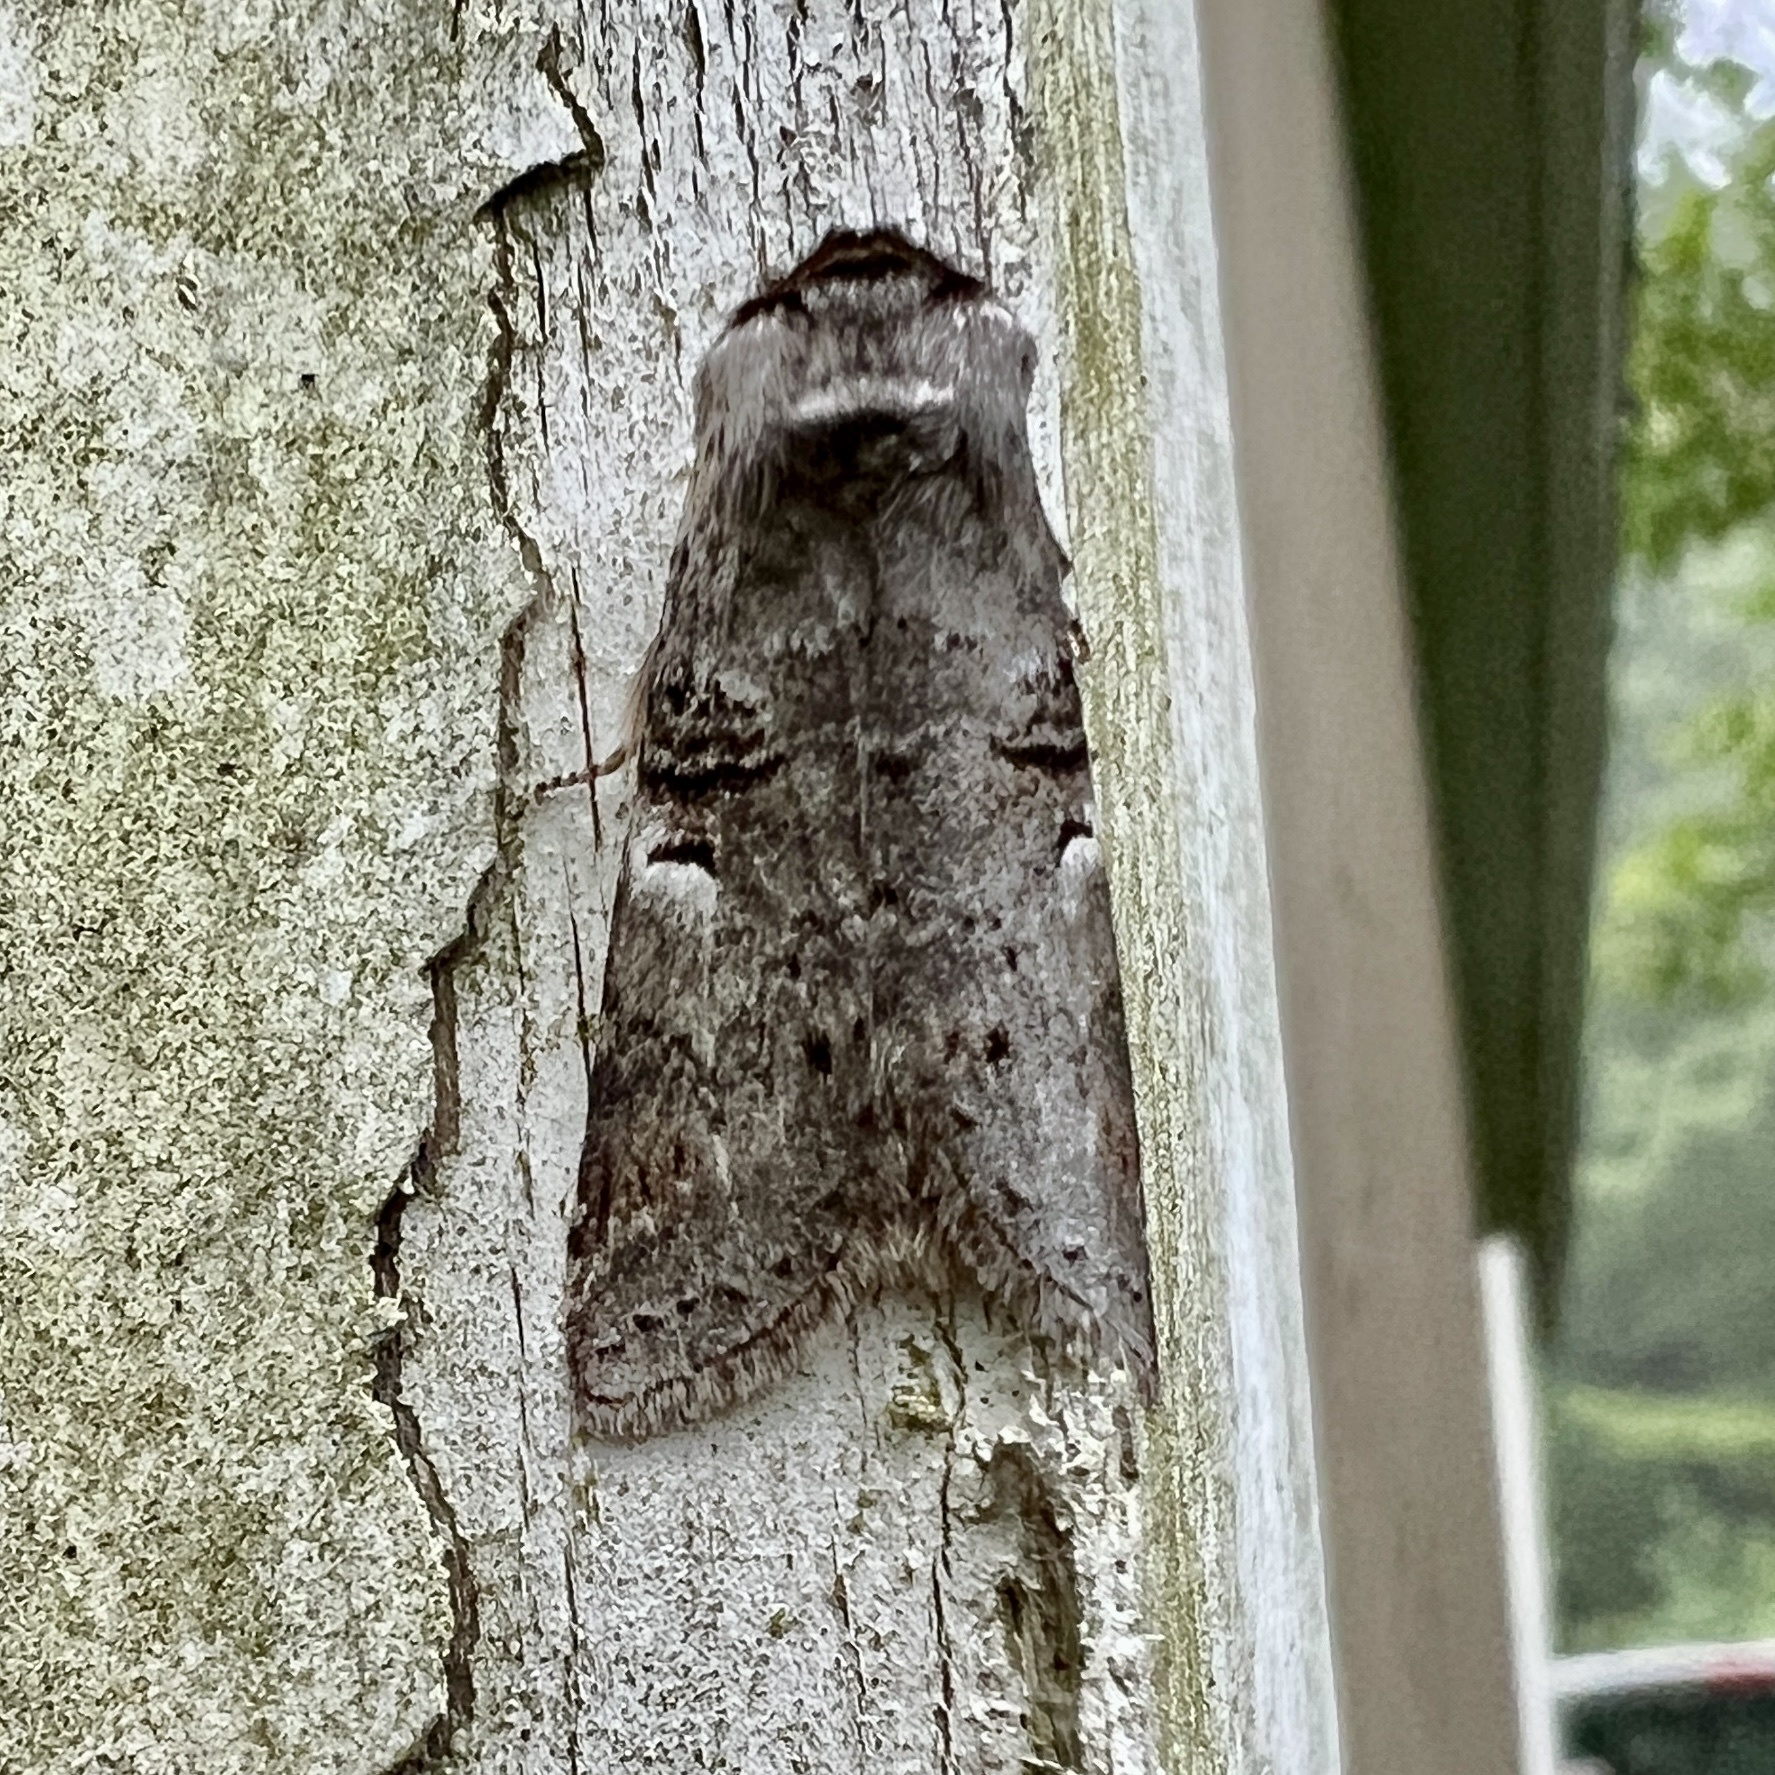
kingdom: Animalia
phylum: Arthropoda
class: Insecta
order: Lepidoptera
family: Notodontidae
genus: Ellida
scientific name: Ellida caniplaga
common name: Linden prominent
